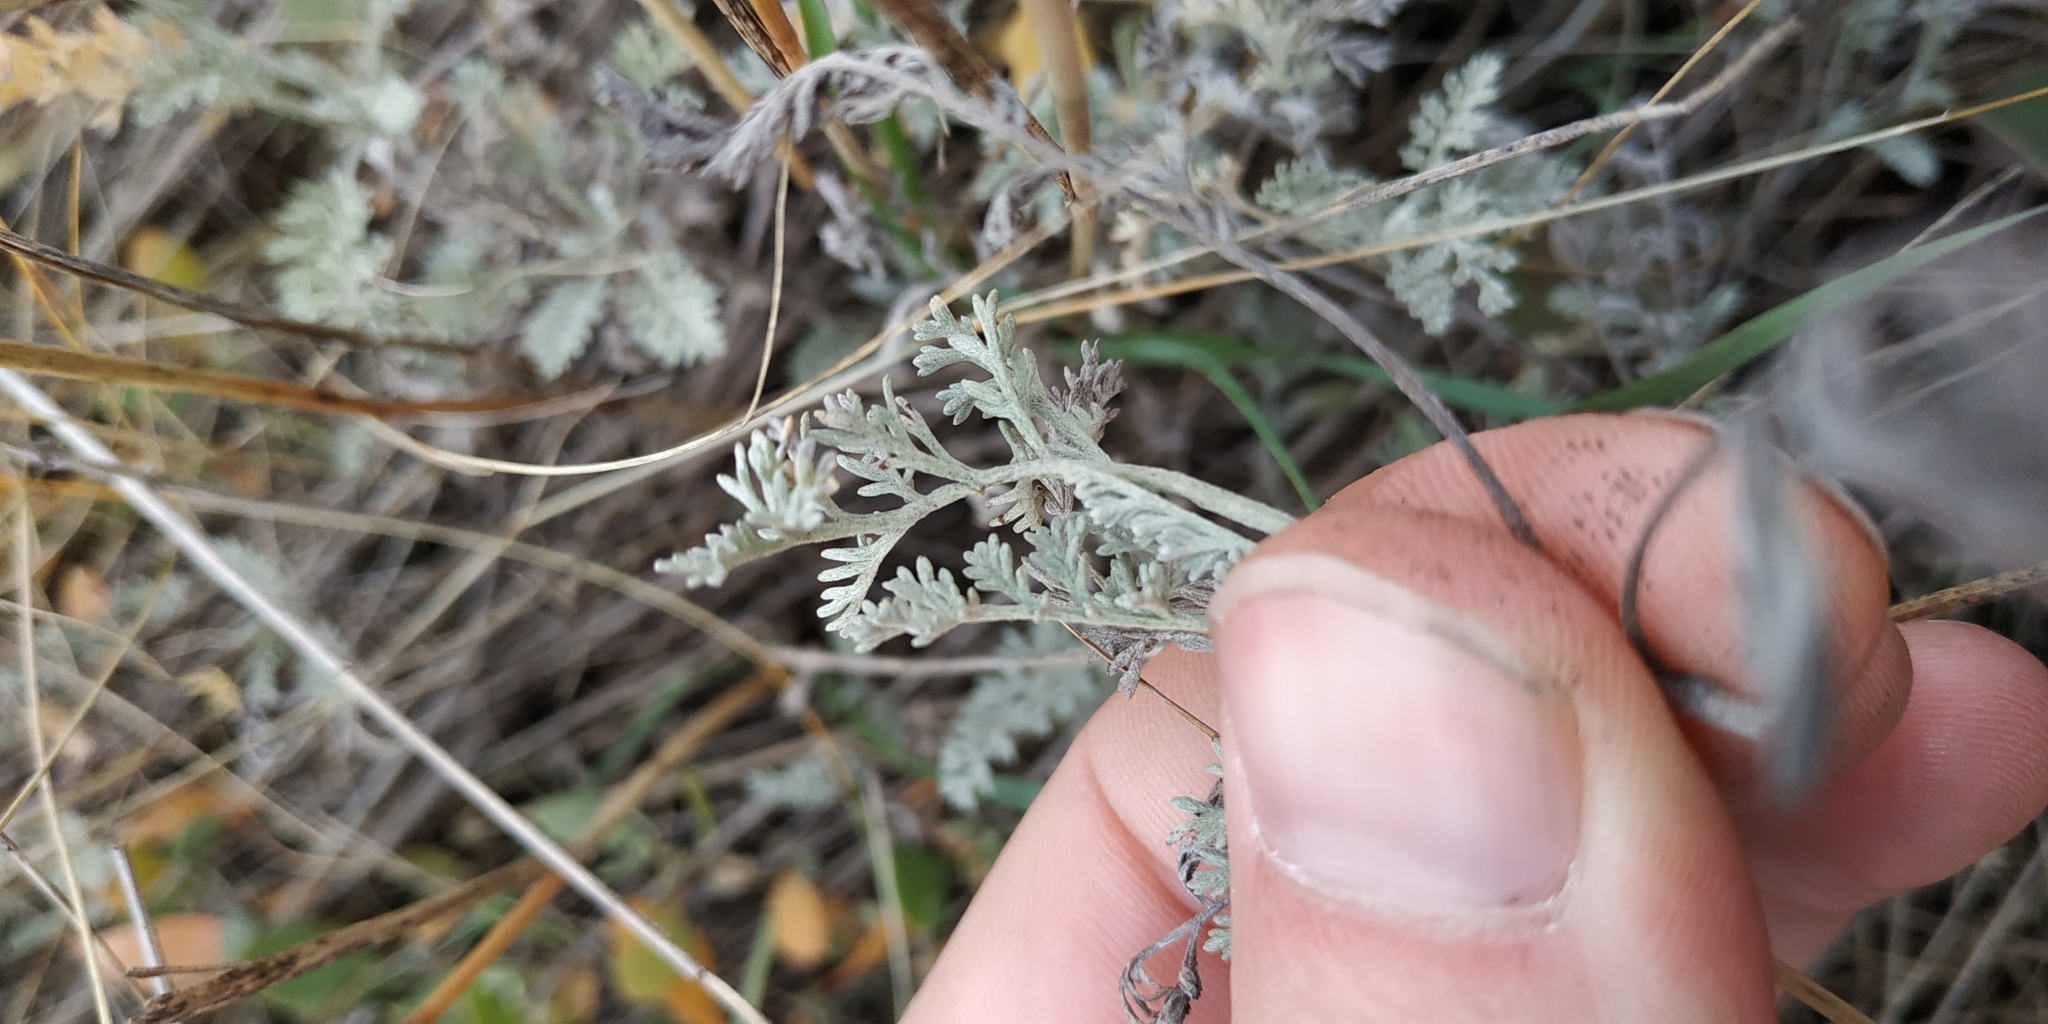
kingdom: Plantae
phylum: Tracheophyta
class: Magnoliopsida
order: Asterales
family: Asteraceae
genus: Artemisia
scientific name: Artemisia nitrosa
